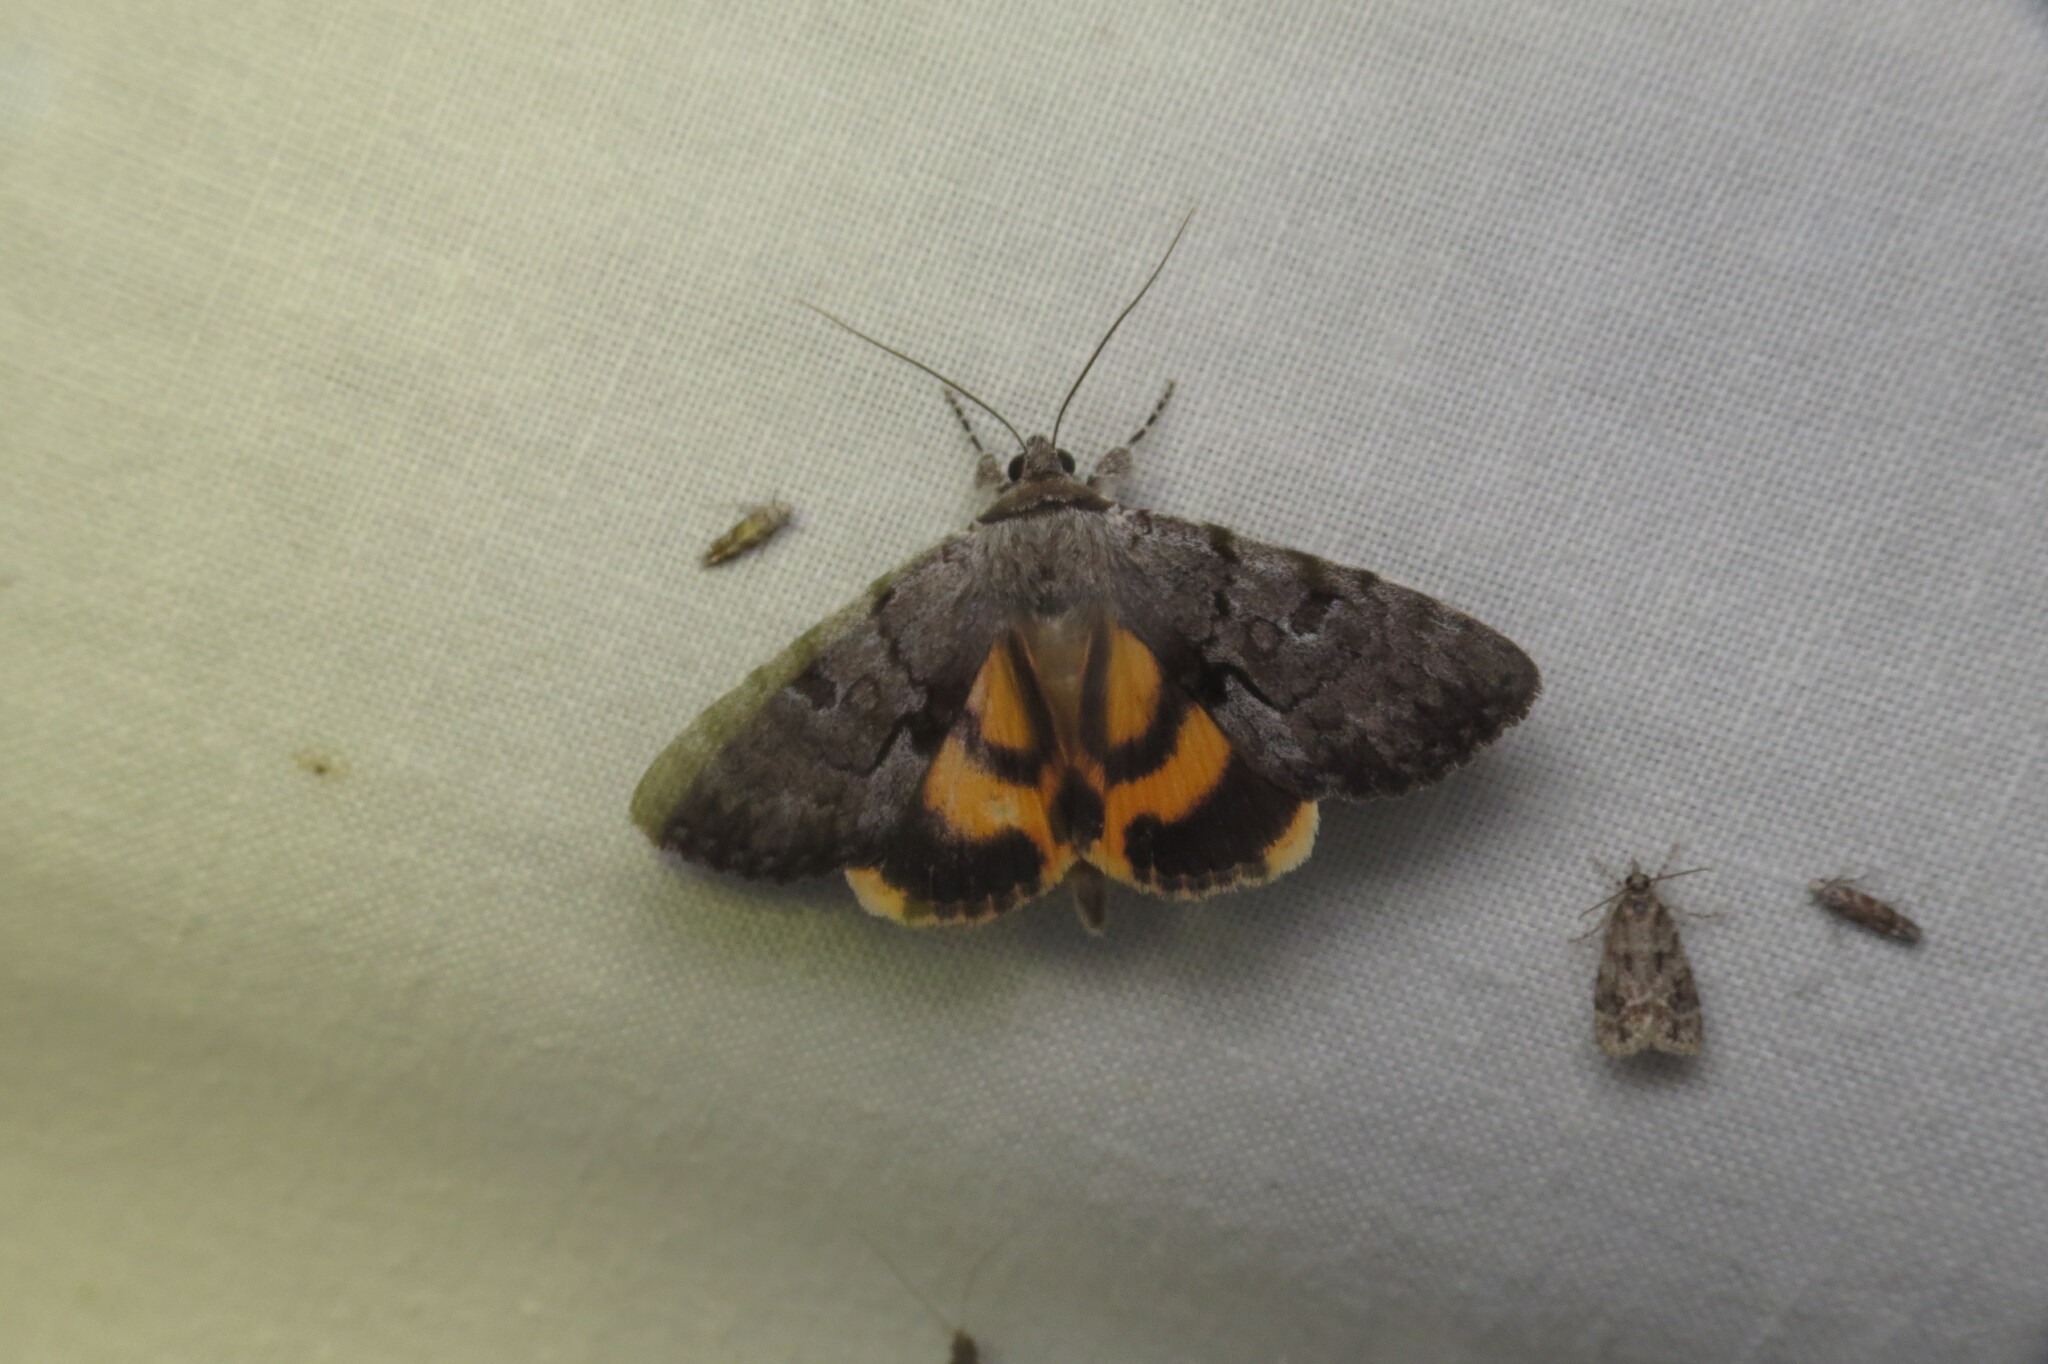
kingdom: Animalia
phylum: Arthropoda
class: Insecta
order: Lepidoptera
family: Erebidae
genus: Catocala
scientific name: Catocala sordida
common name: Sordid underwing
